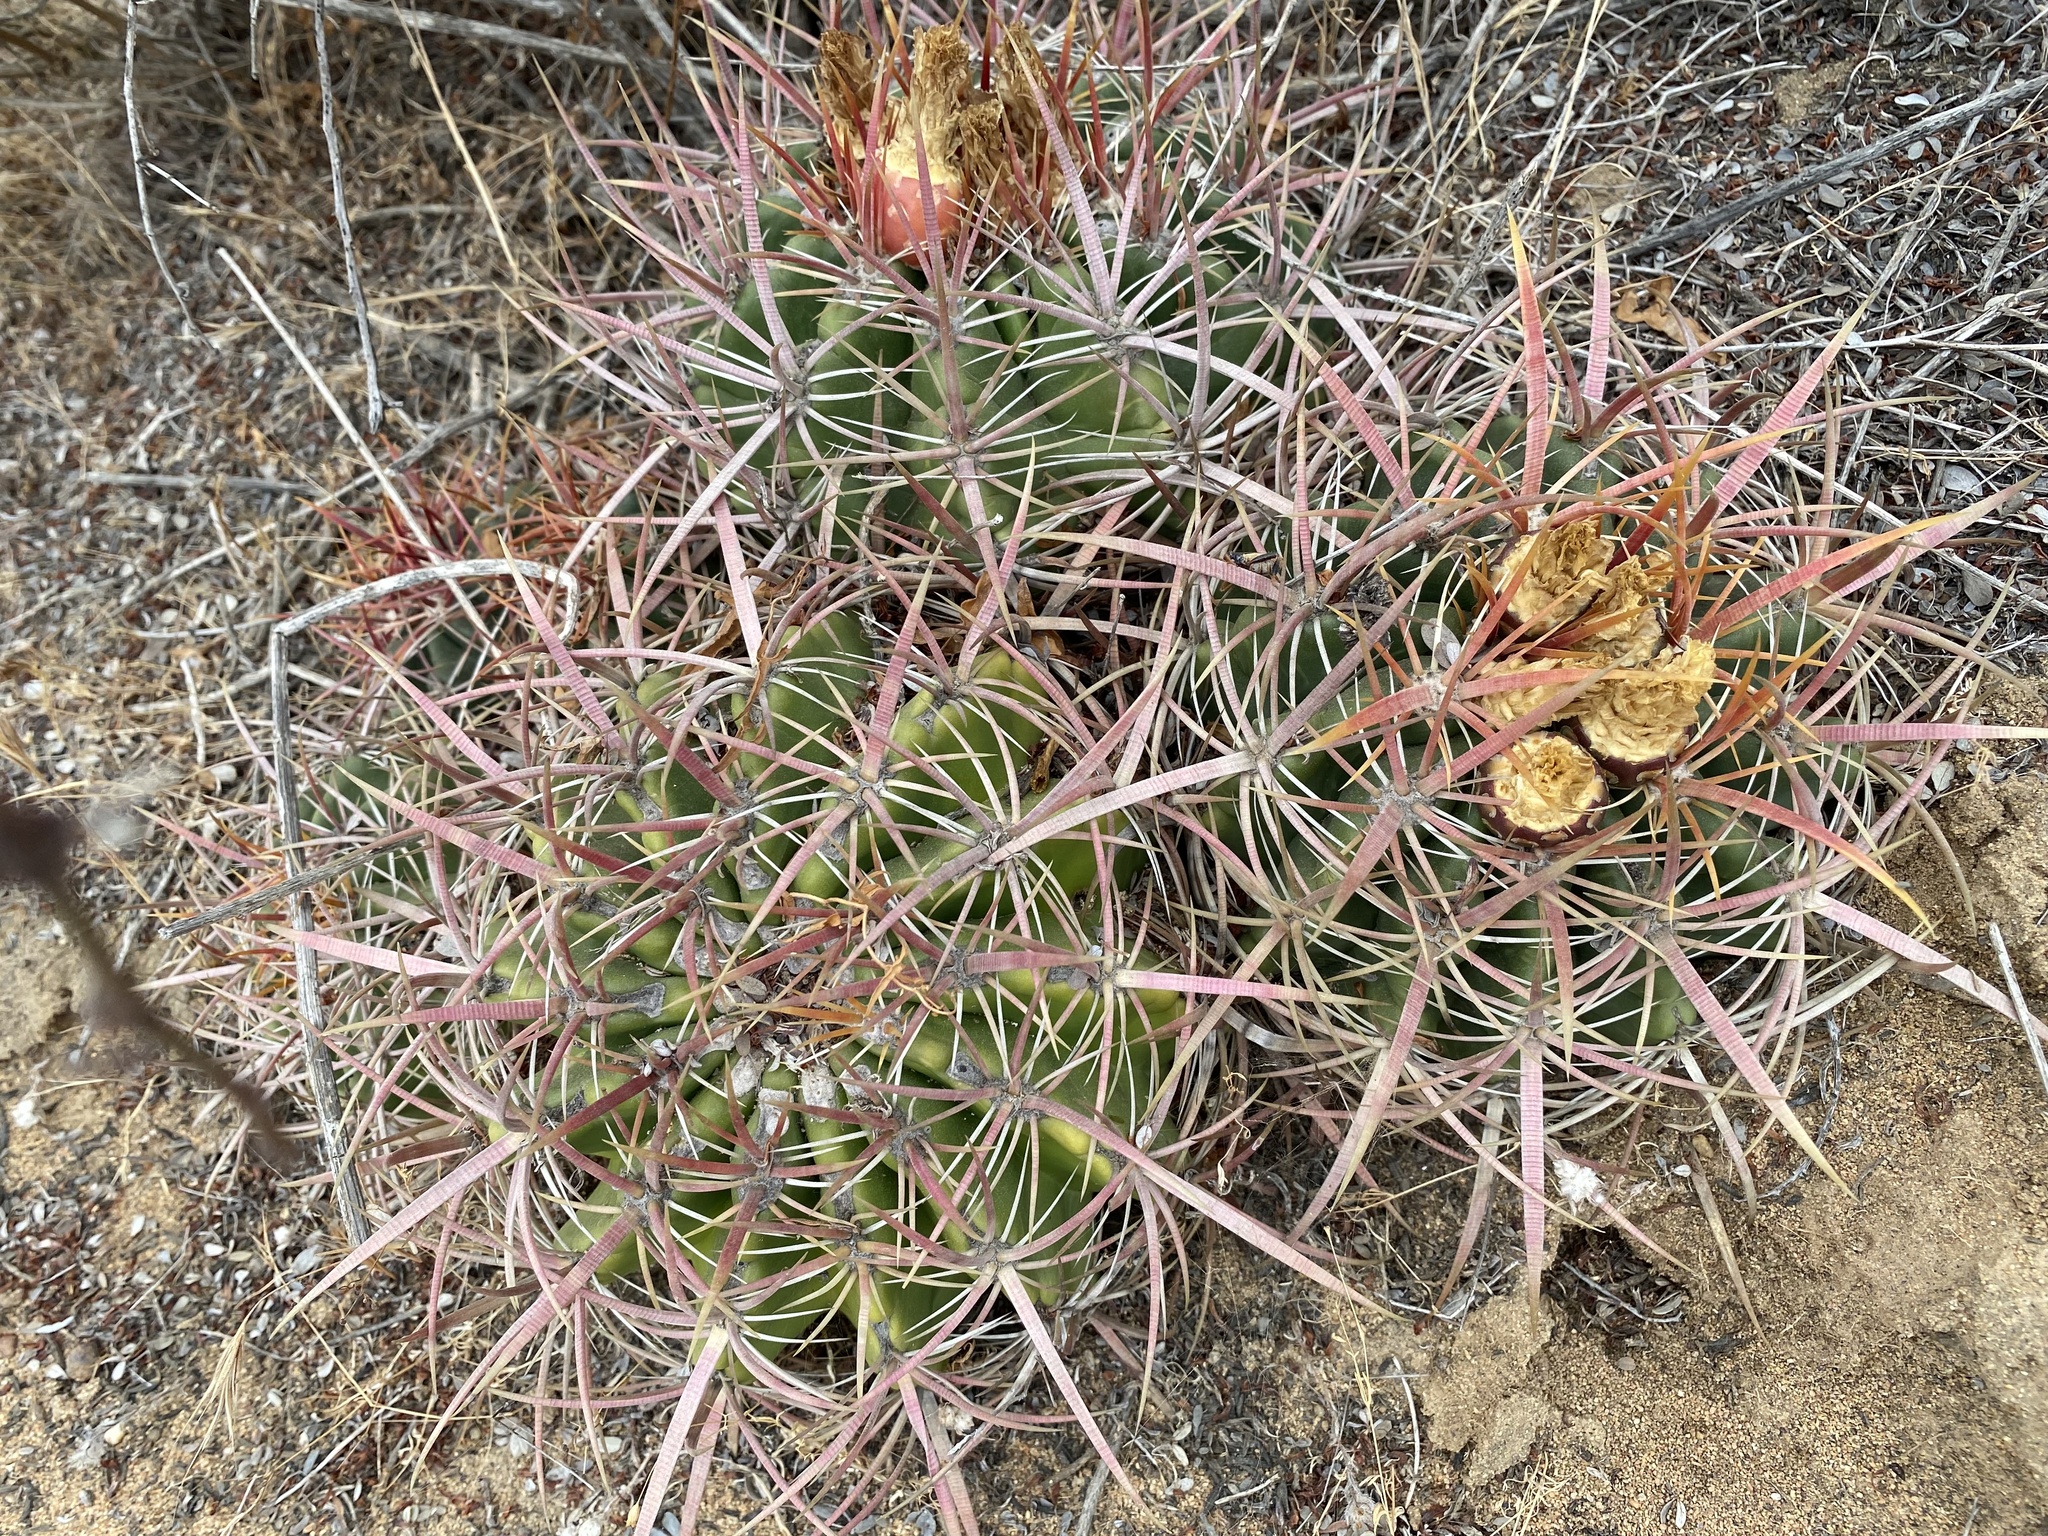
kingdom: Plantae
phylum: Tracheophyta
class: Magnoliopsida
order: Caryophyllales
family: Cactaceae
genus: Ferocactus
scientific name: Ferocactus viridescens
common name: San diego barrel cactus
